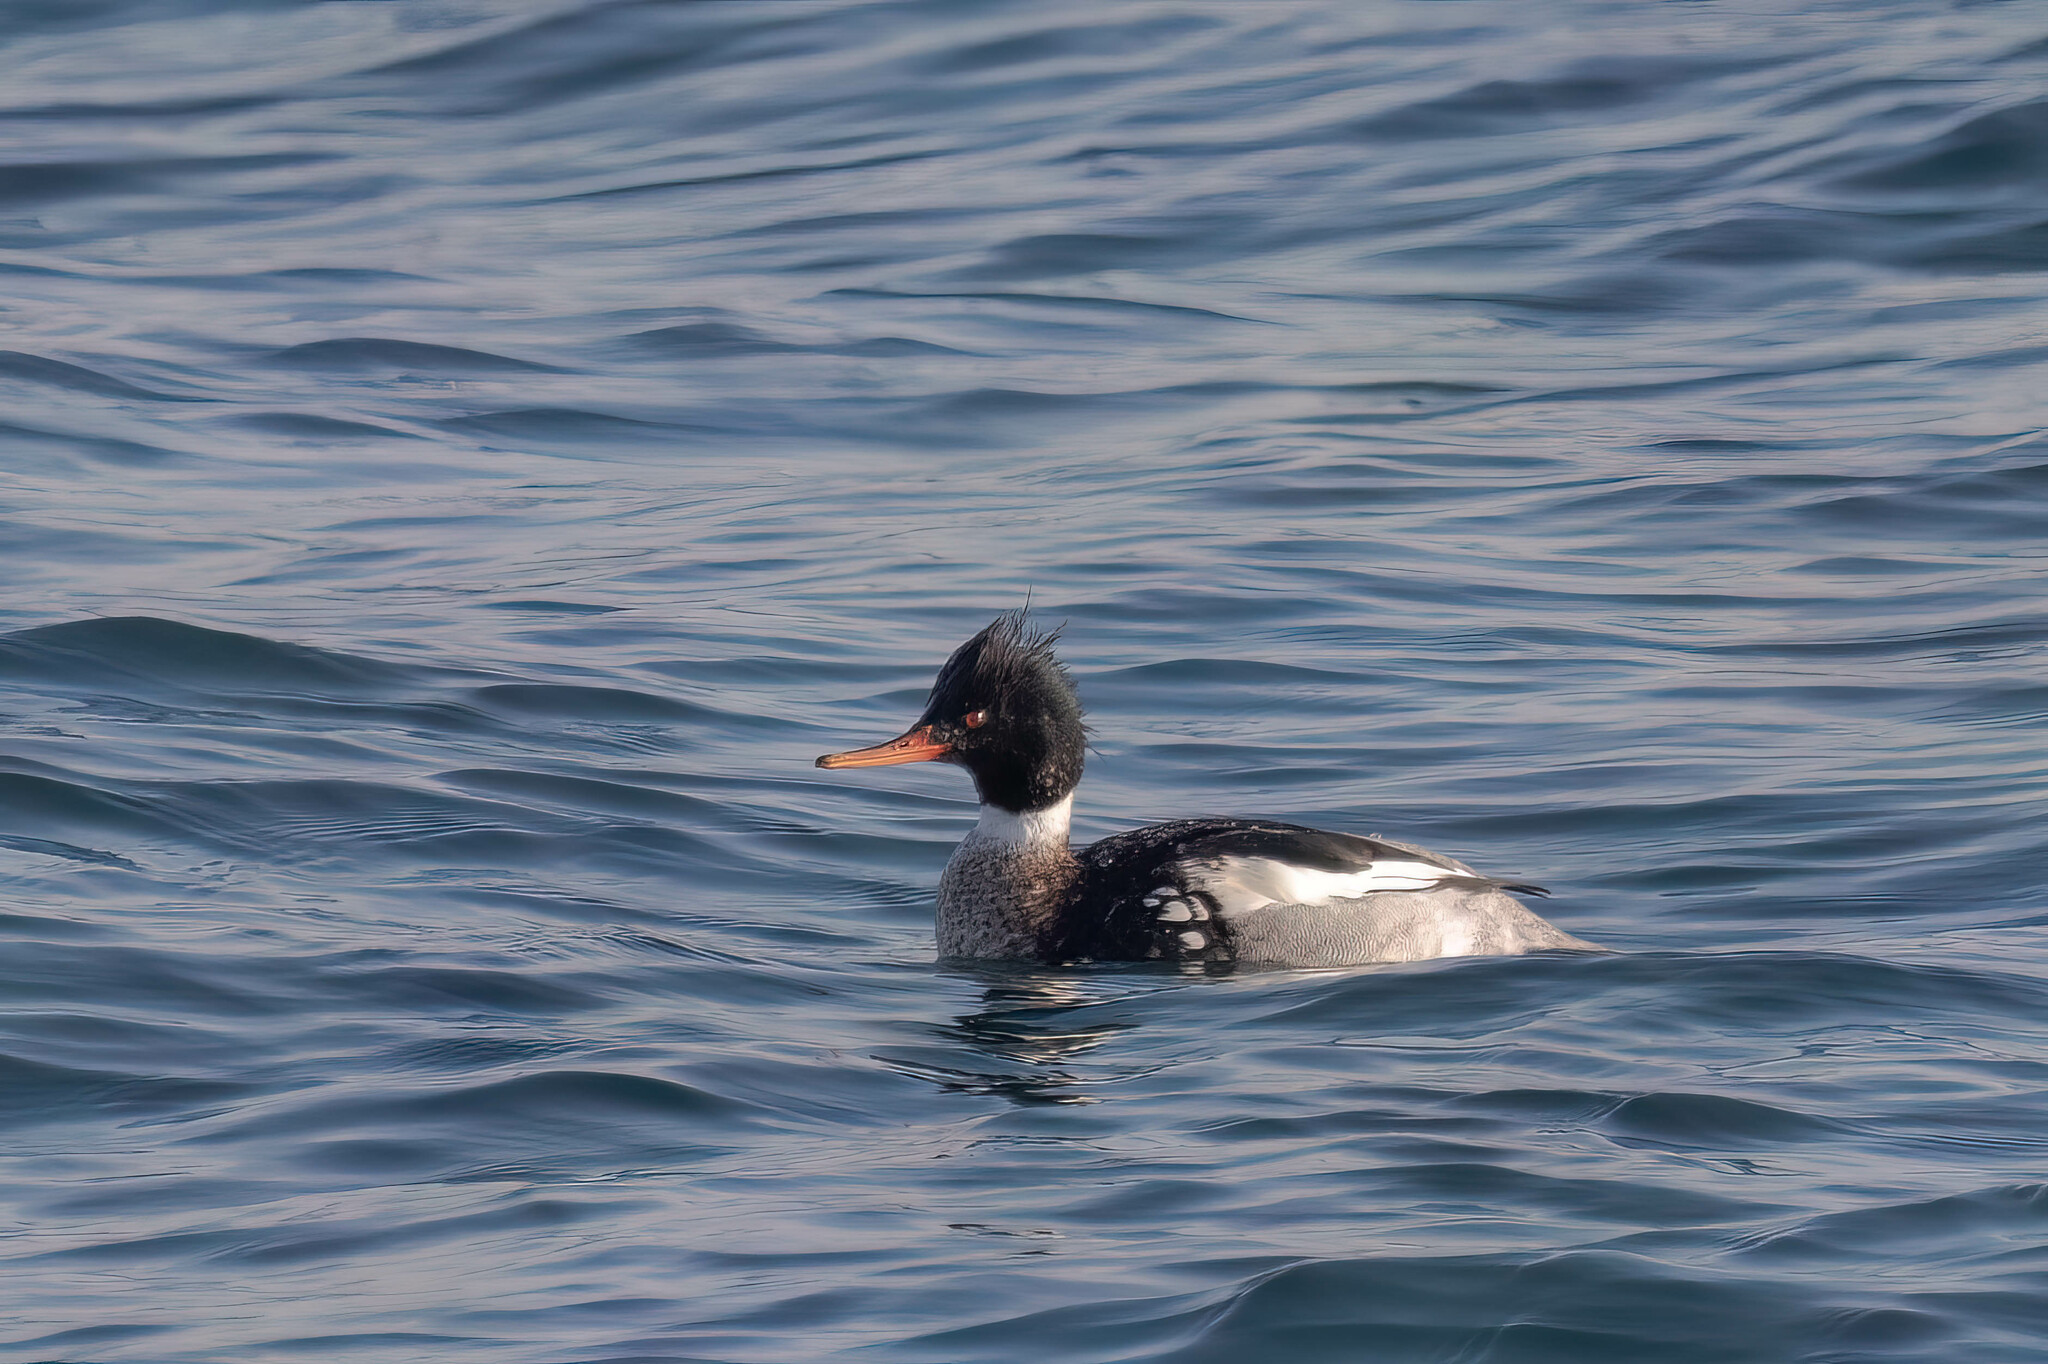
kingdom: Animalia
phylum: Chordata
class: Aves
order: Anseriformes
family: Anatidae
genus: Mergus
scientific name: Mergus serrator
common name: Red-breasted merganser
